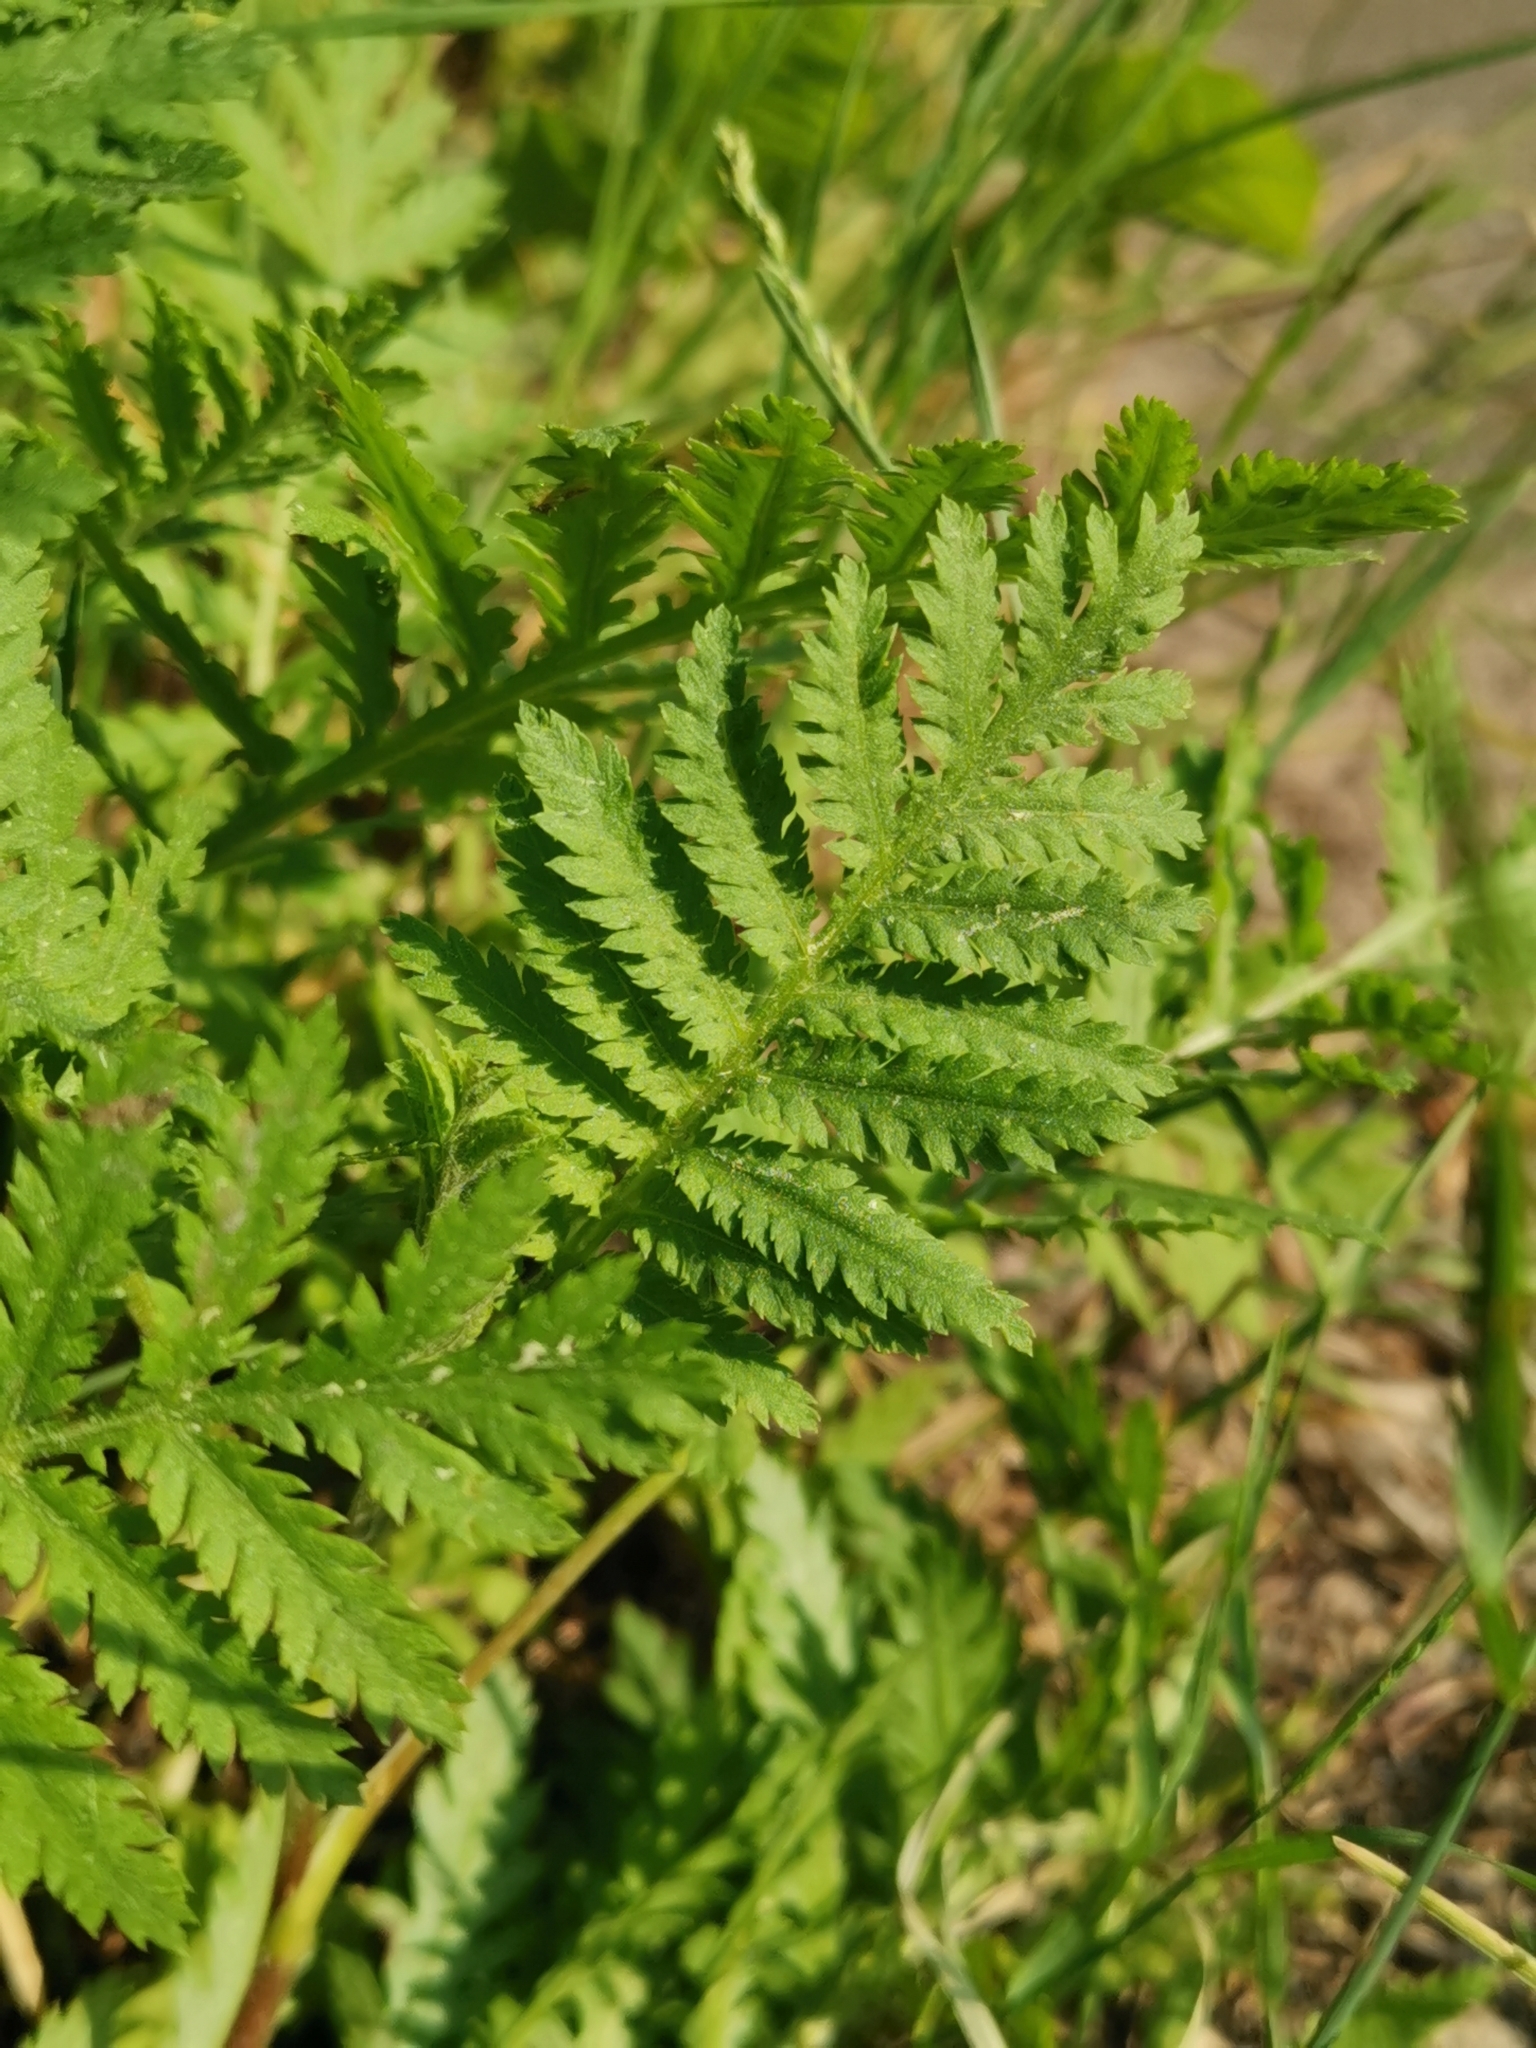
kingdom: Plantae
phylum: Tracheophyta
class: Magnoliopsida
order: Asterales
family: Asteraceae
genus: Tanacetum
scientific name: Tanacetum vulgare
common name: Common tansy
